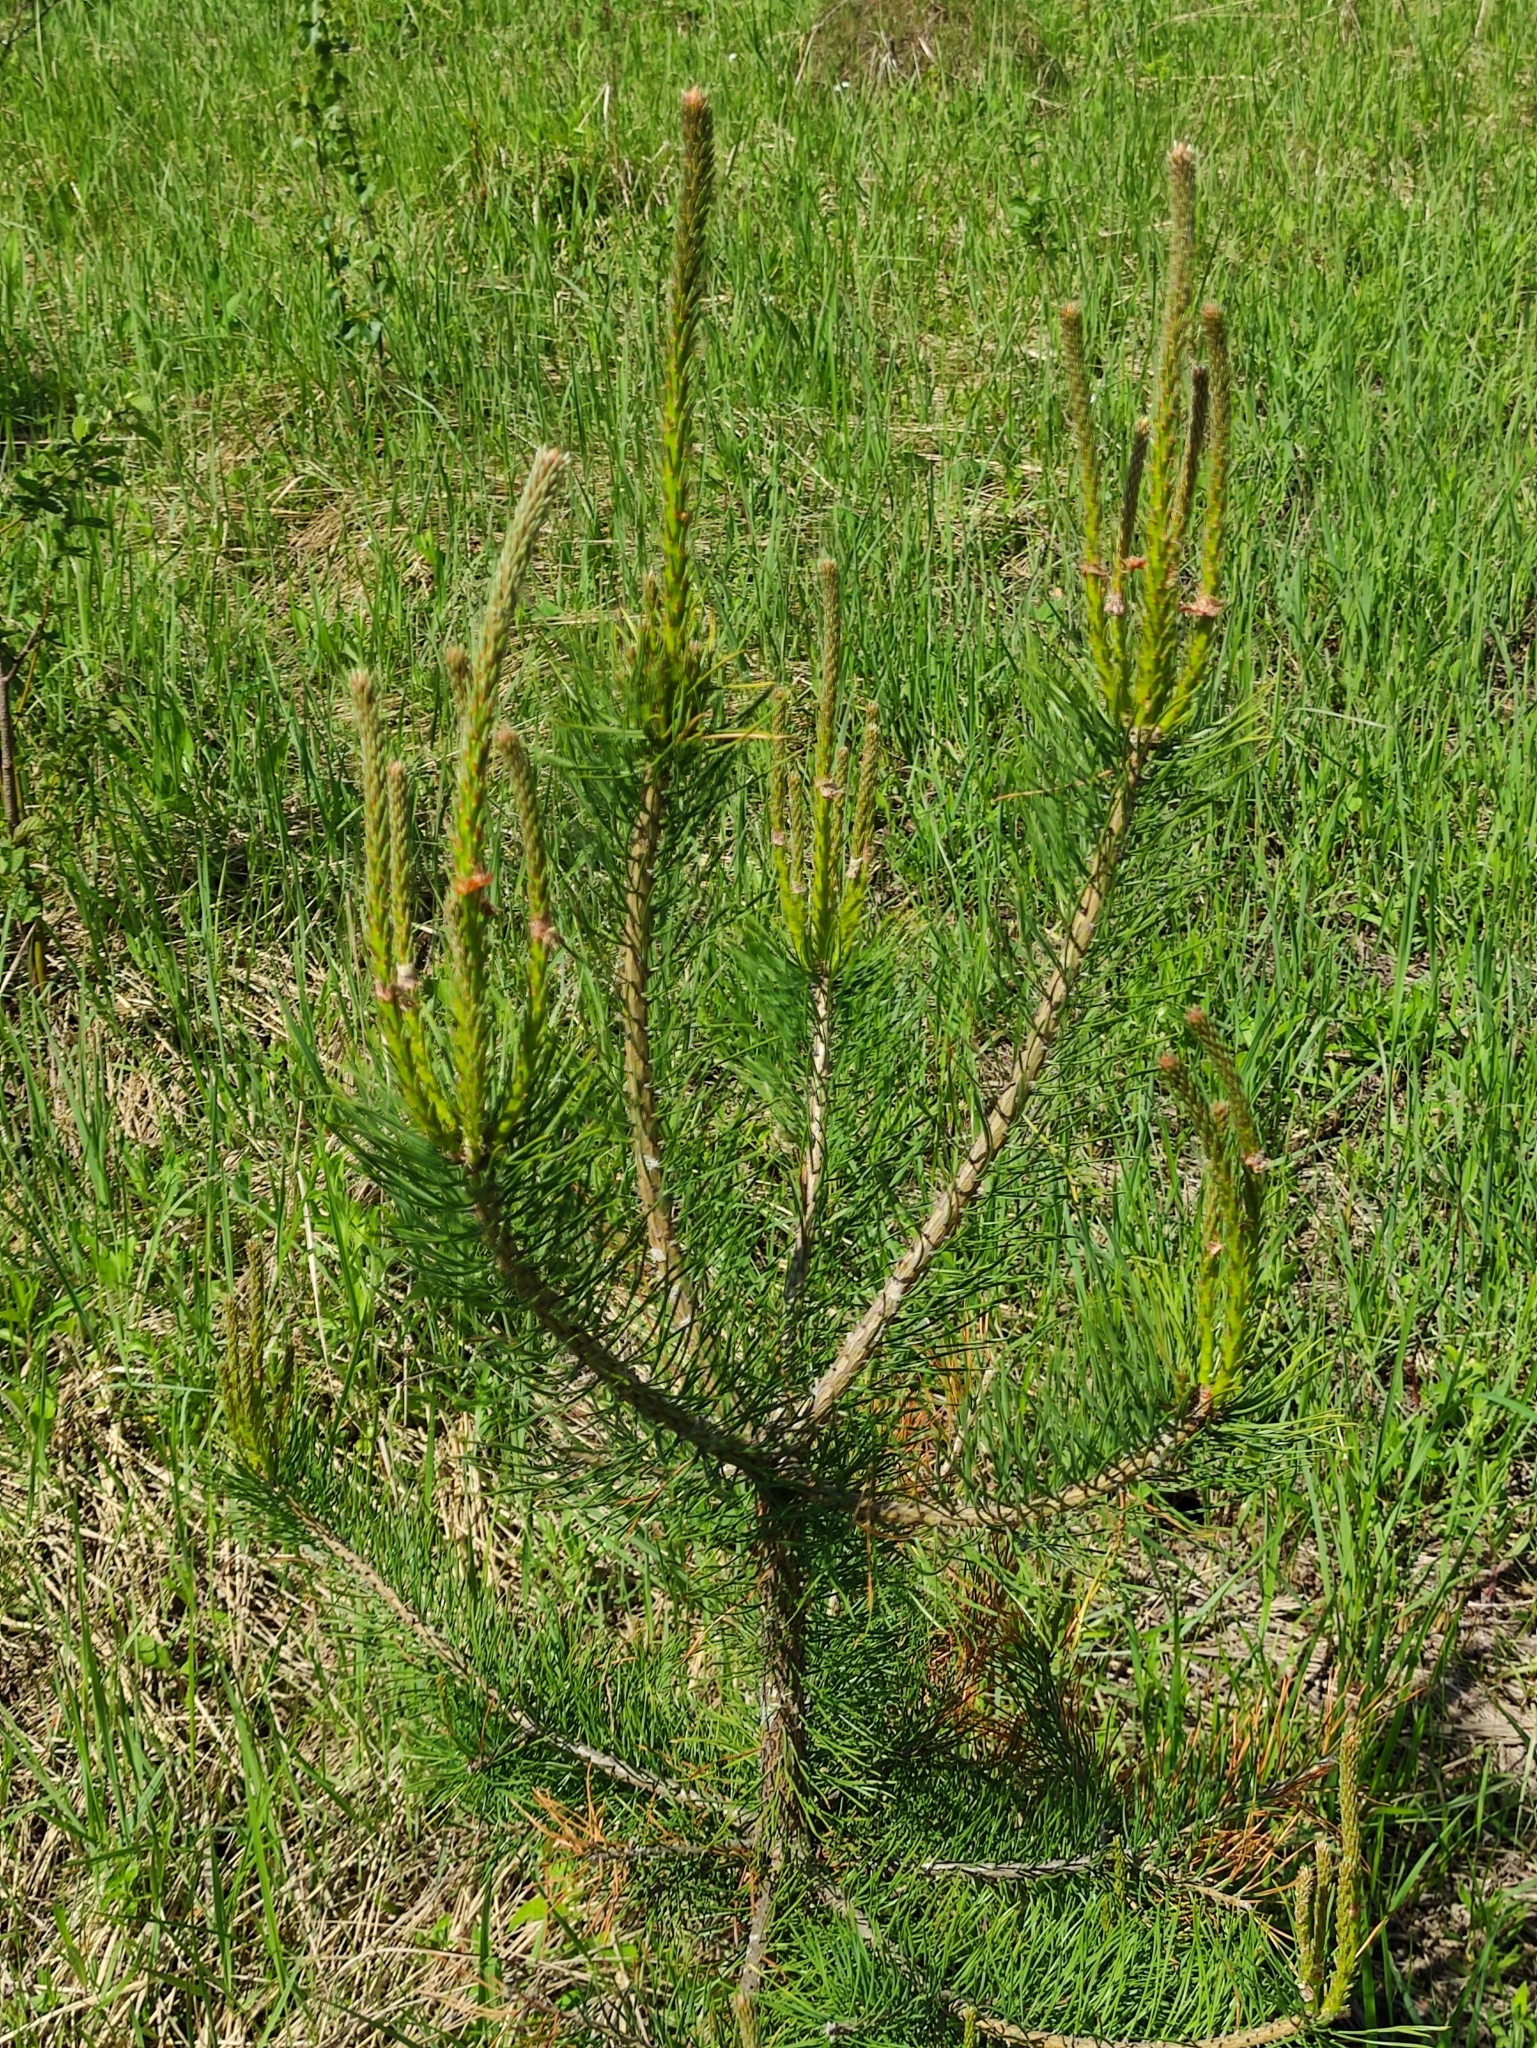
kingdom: Plantae
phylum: Tracheophyta
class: Pinopsida
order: Pinales
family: Pinaceae
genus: Pinus
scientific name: Pinus sylvestris
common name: Scots pine
